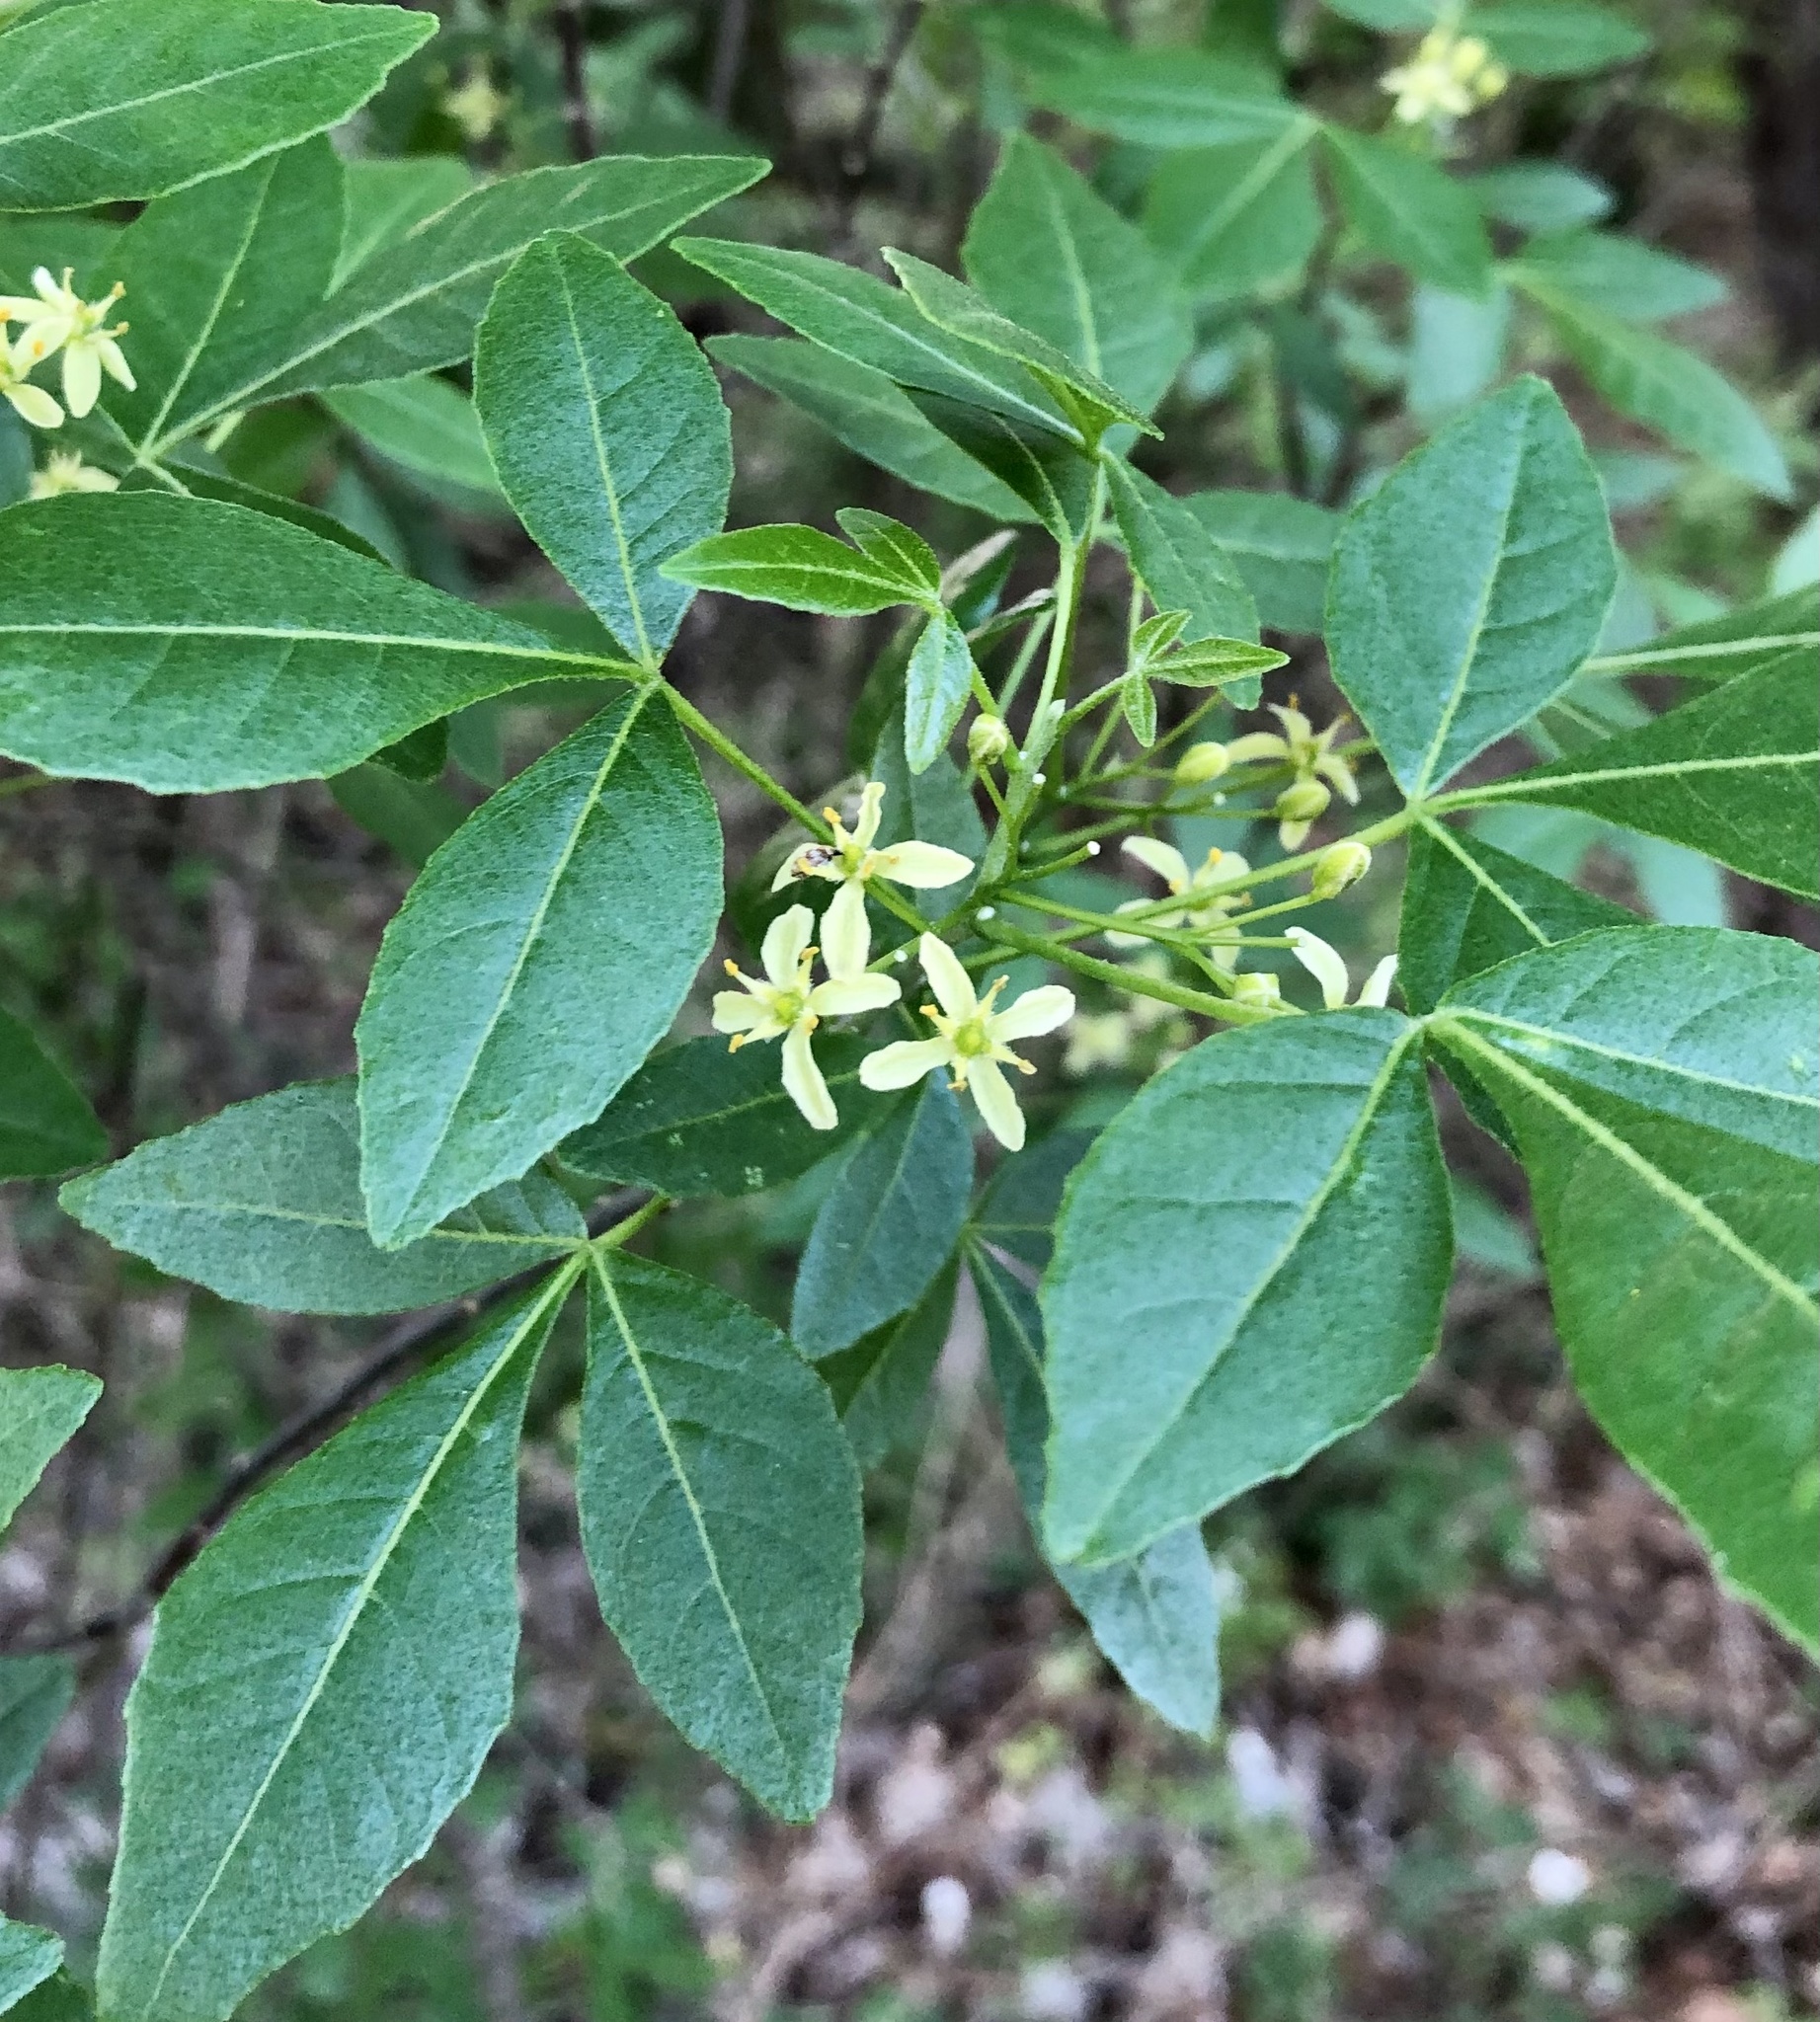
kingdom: Plantae
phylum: Tracheophyta
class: Magnoliopsida
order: Sapindales
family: Rutaceae
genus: Ptelea
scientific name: Ptelea trifoliata
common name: Common hop-tree
